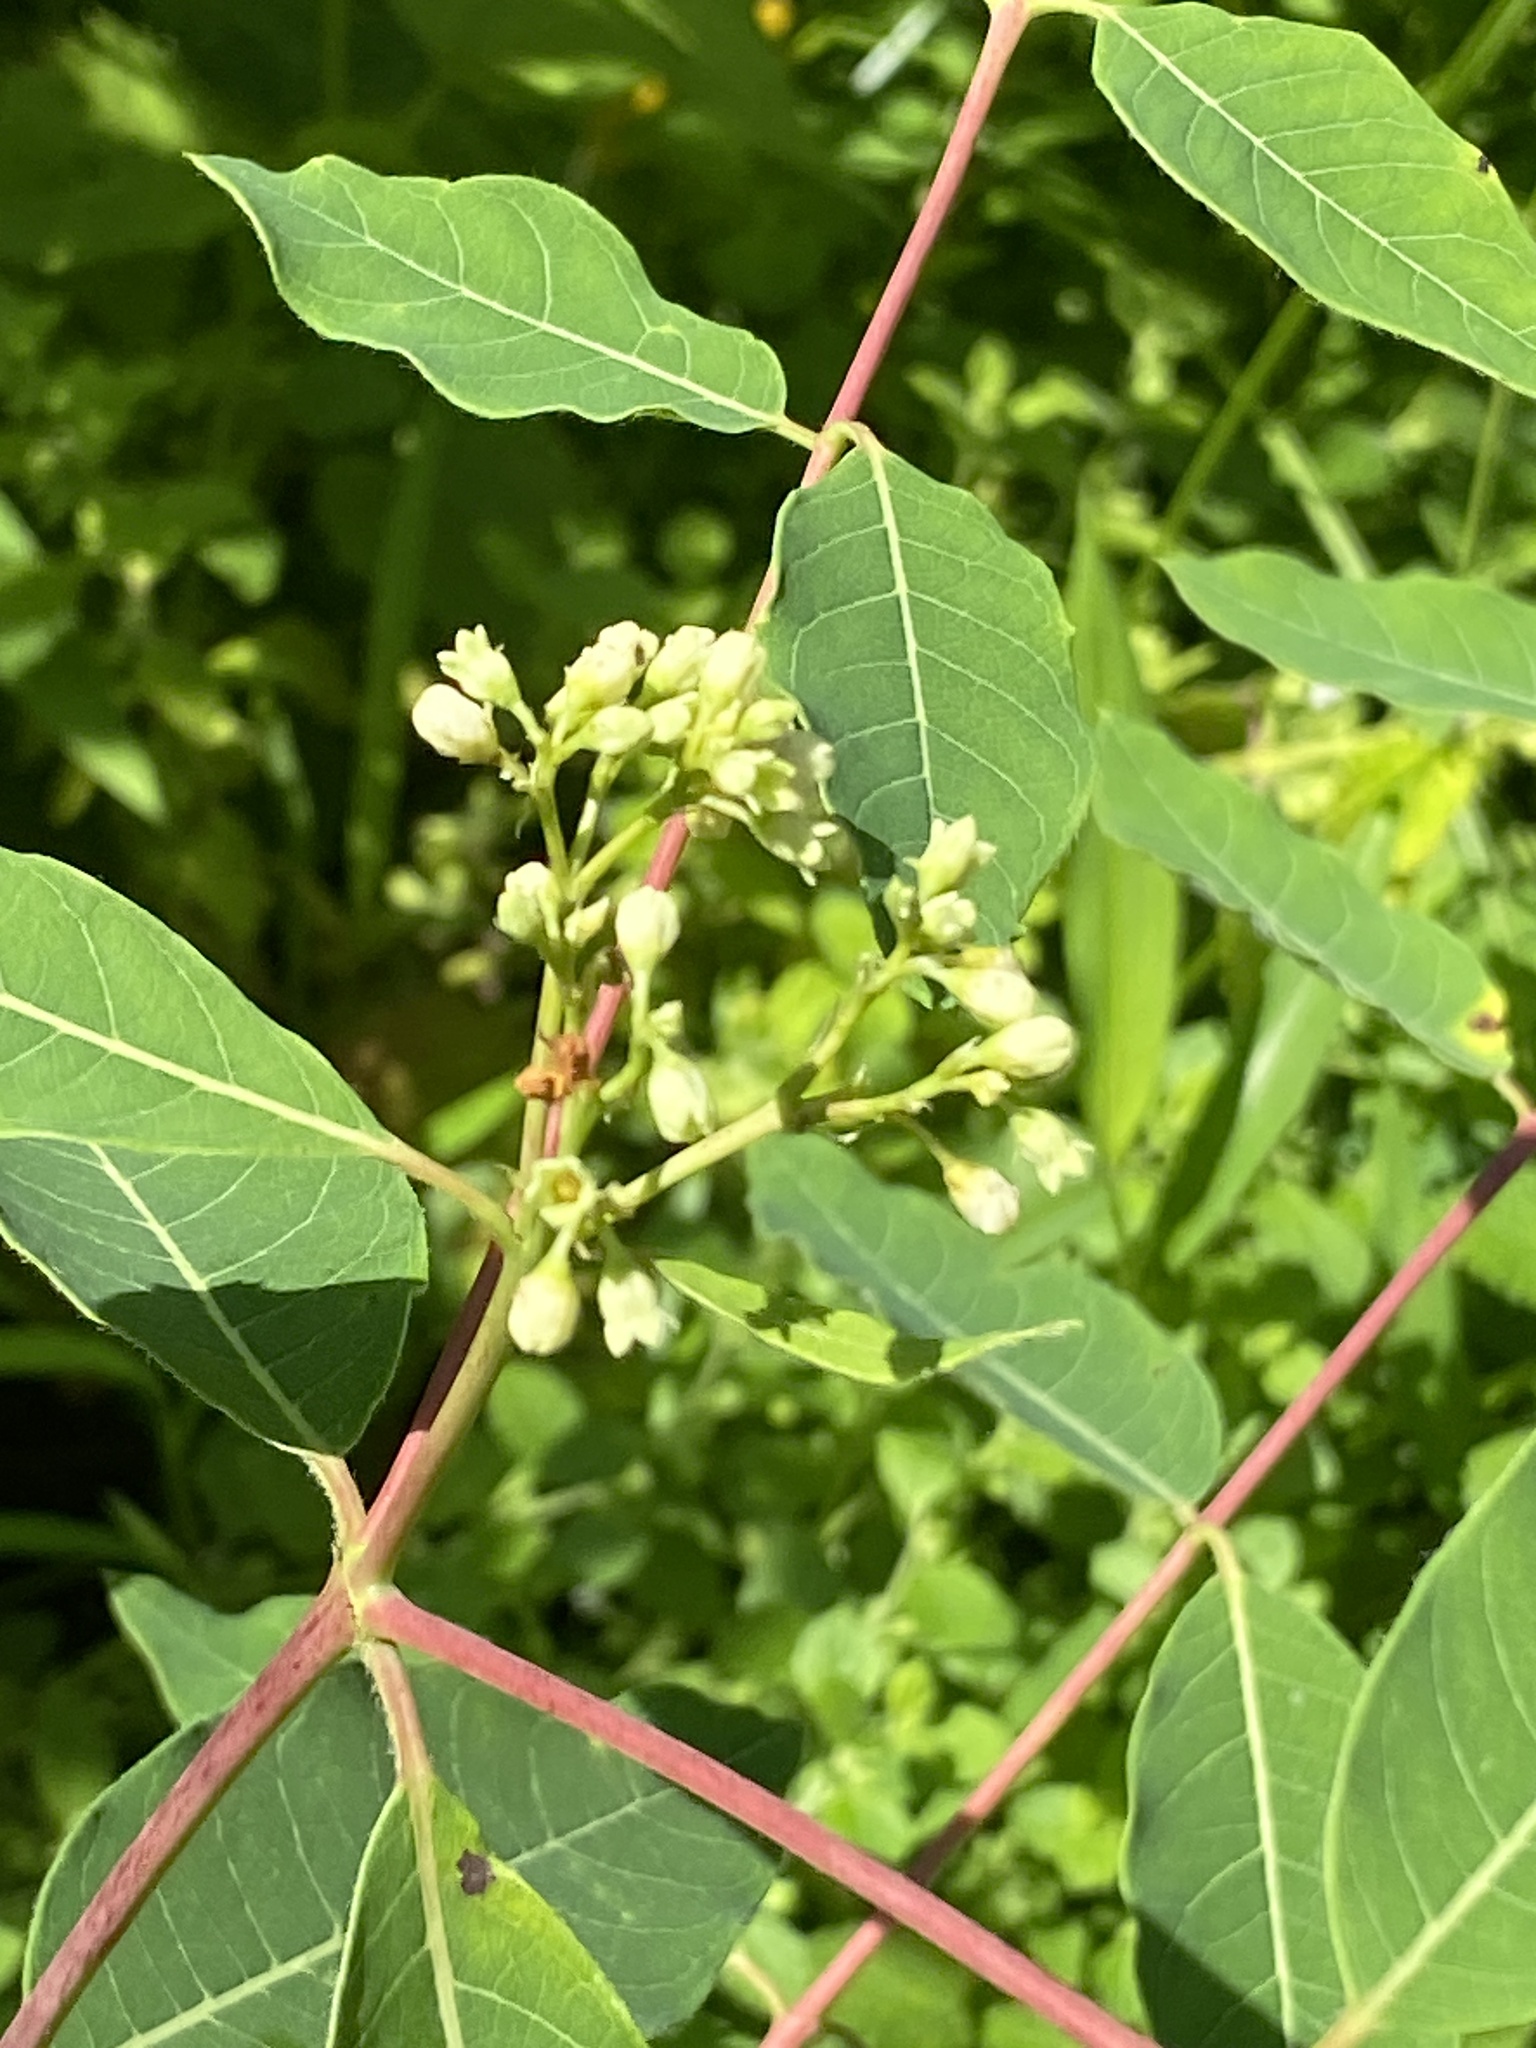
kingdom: Plantae
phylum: Tracheophyta
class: Magnoliopsida
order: Gentianales
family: Apocynaceae
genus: Apocynum
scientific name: Apocynum cannabinum
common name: Hemp dogbane
